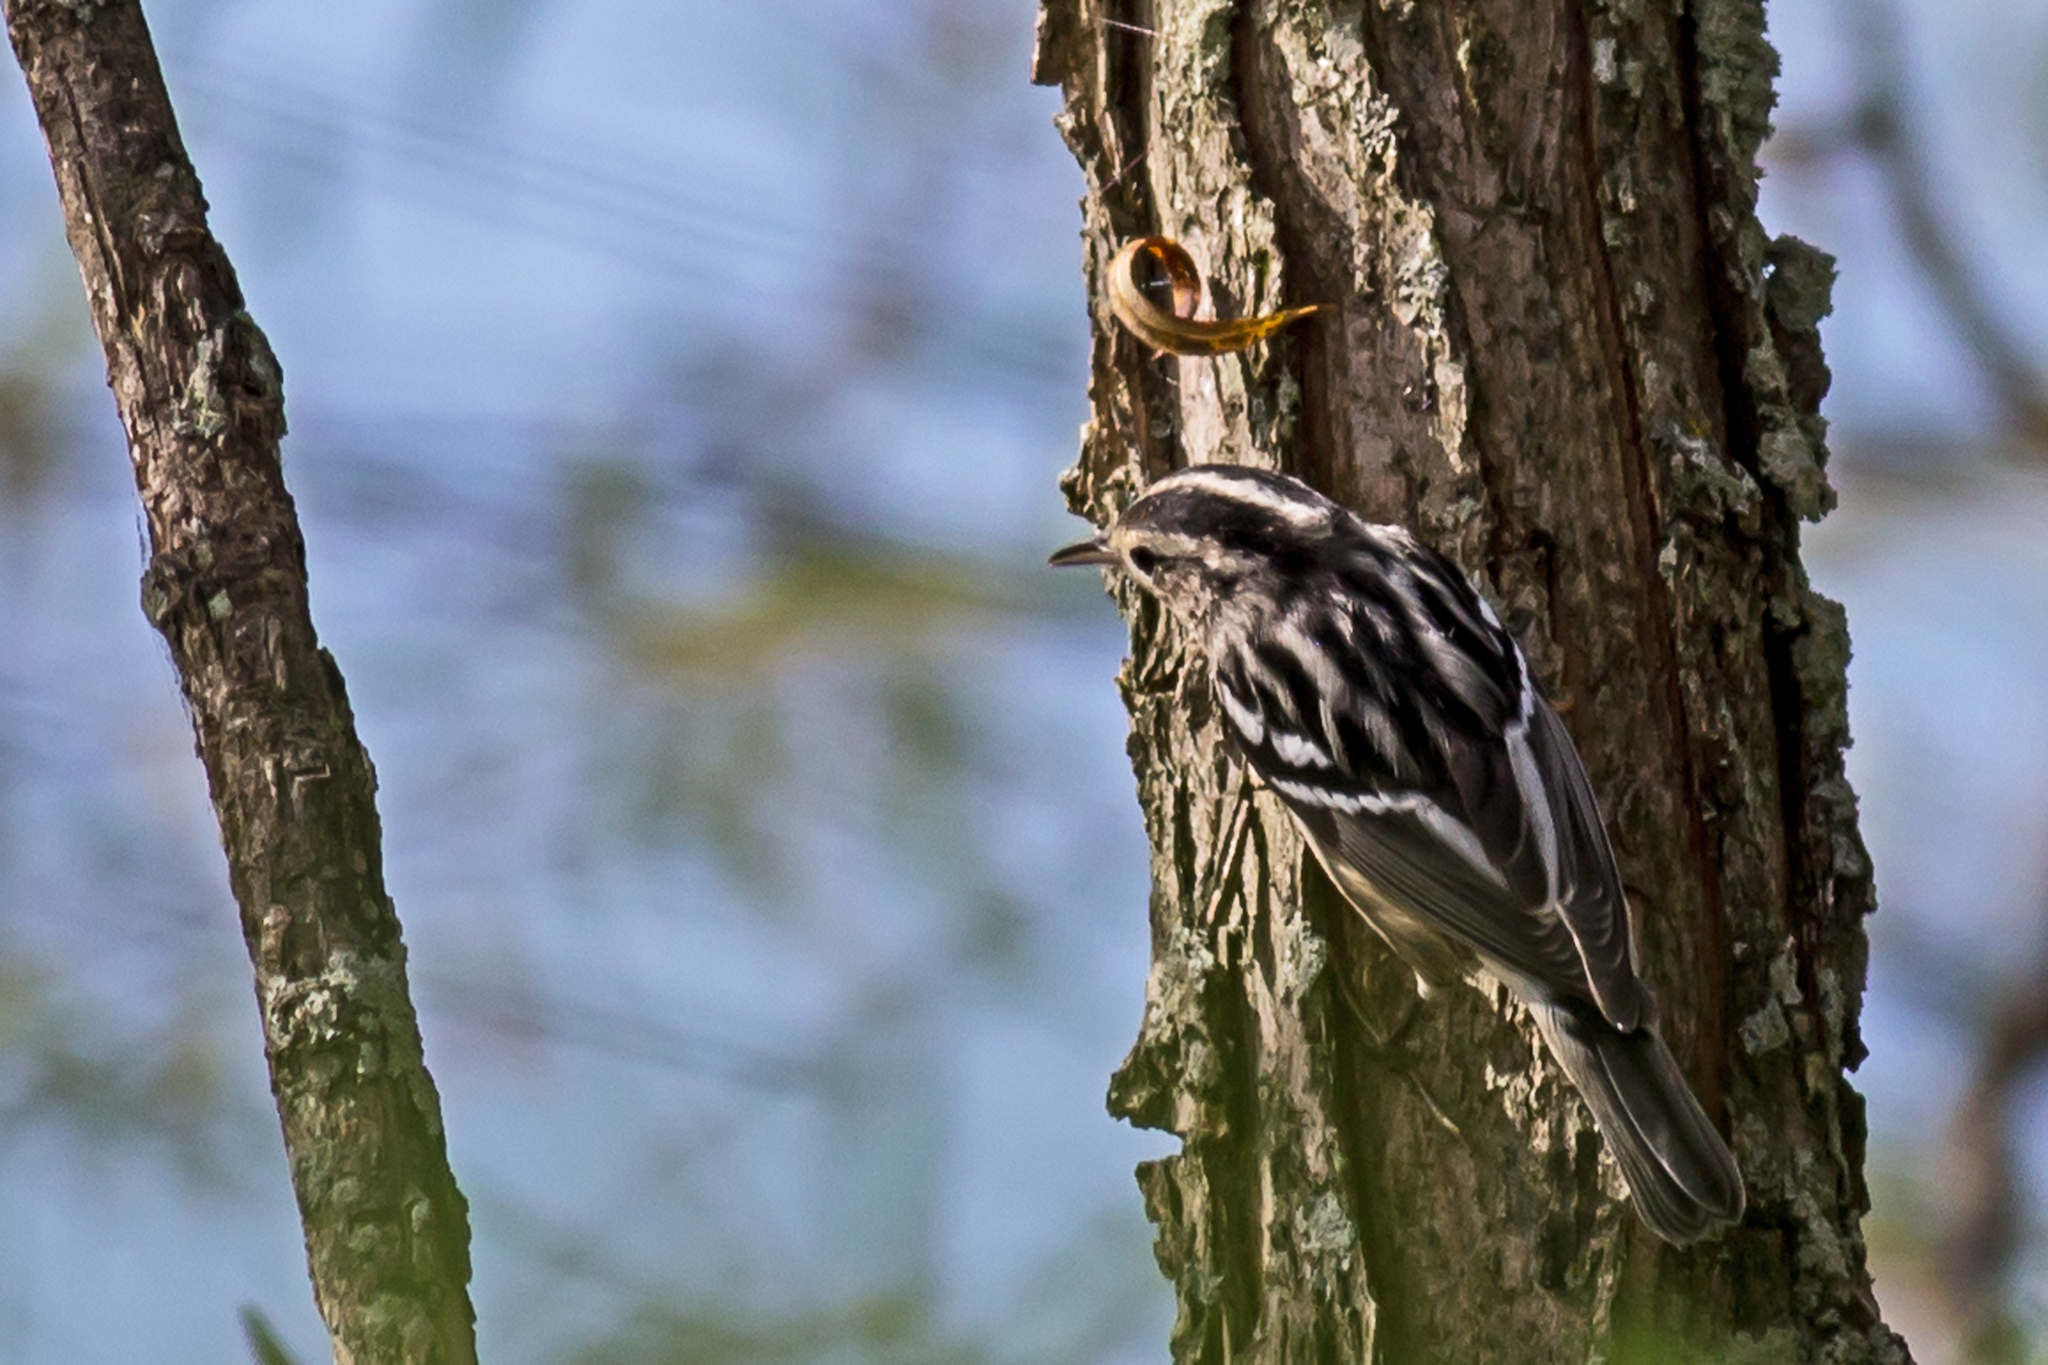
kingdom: Animalia
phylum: Chordata
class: Aves
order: Passeriformes
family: Parulidae
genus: Mniotilta
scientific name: Mniotilta varia
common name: Black-and-white warbler
